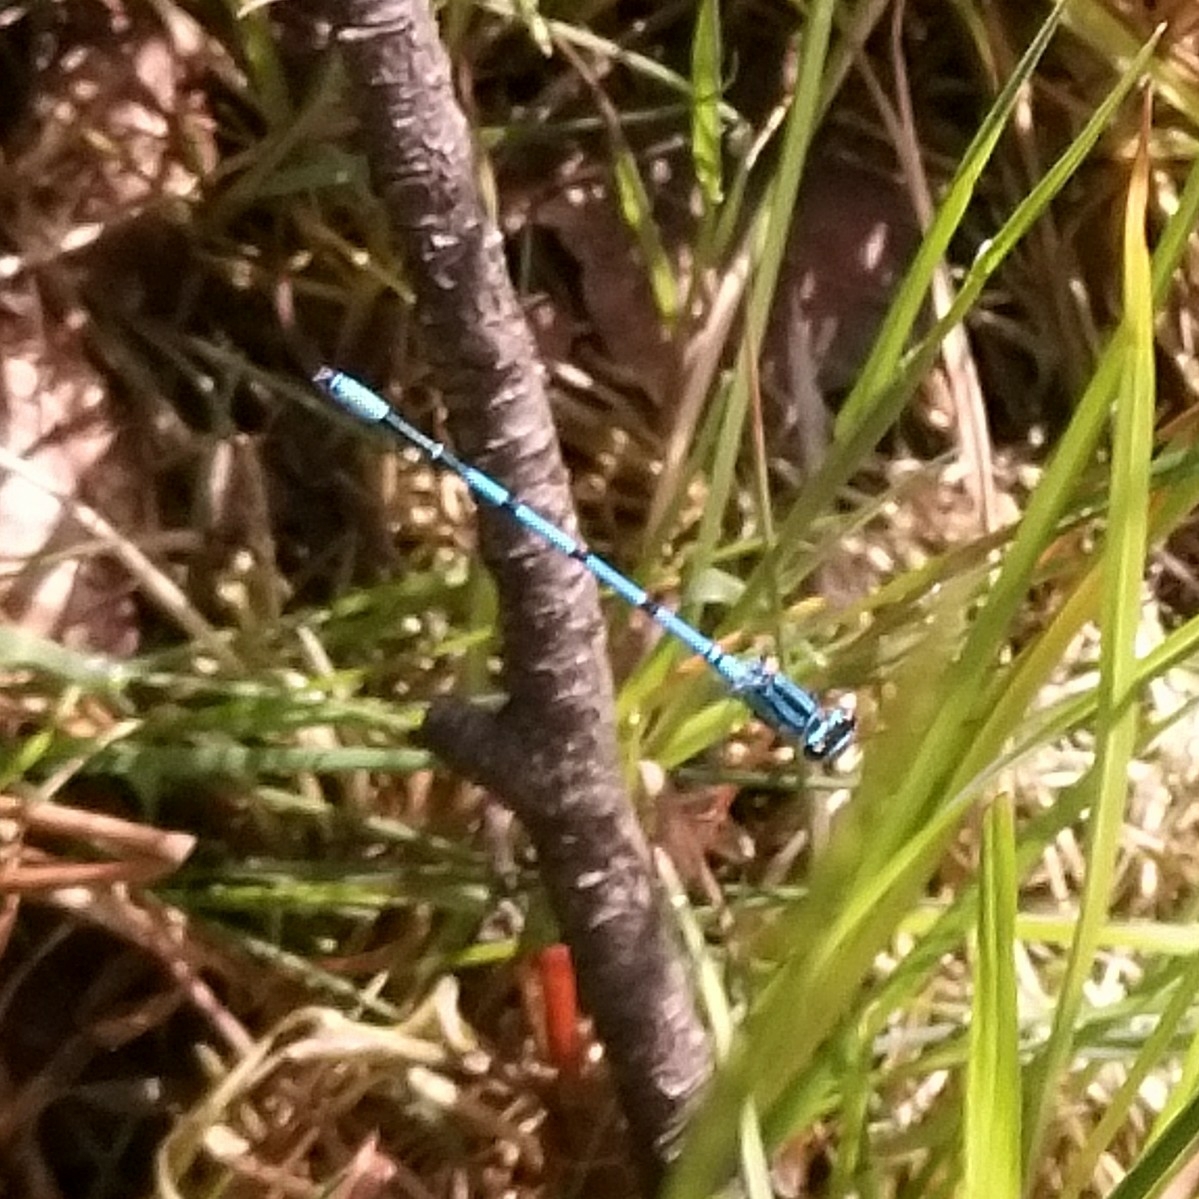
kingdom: Animalia
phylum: Arthropoda
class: Insecta
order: Odonata
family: Coenagrionidae
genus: Coenagrion
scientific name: Coenagrion puella
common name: Azure damselfly
